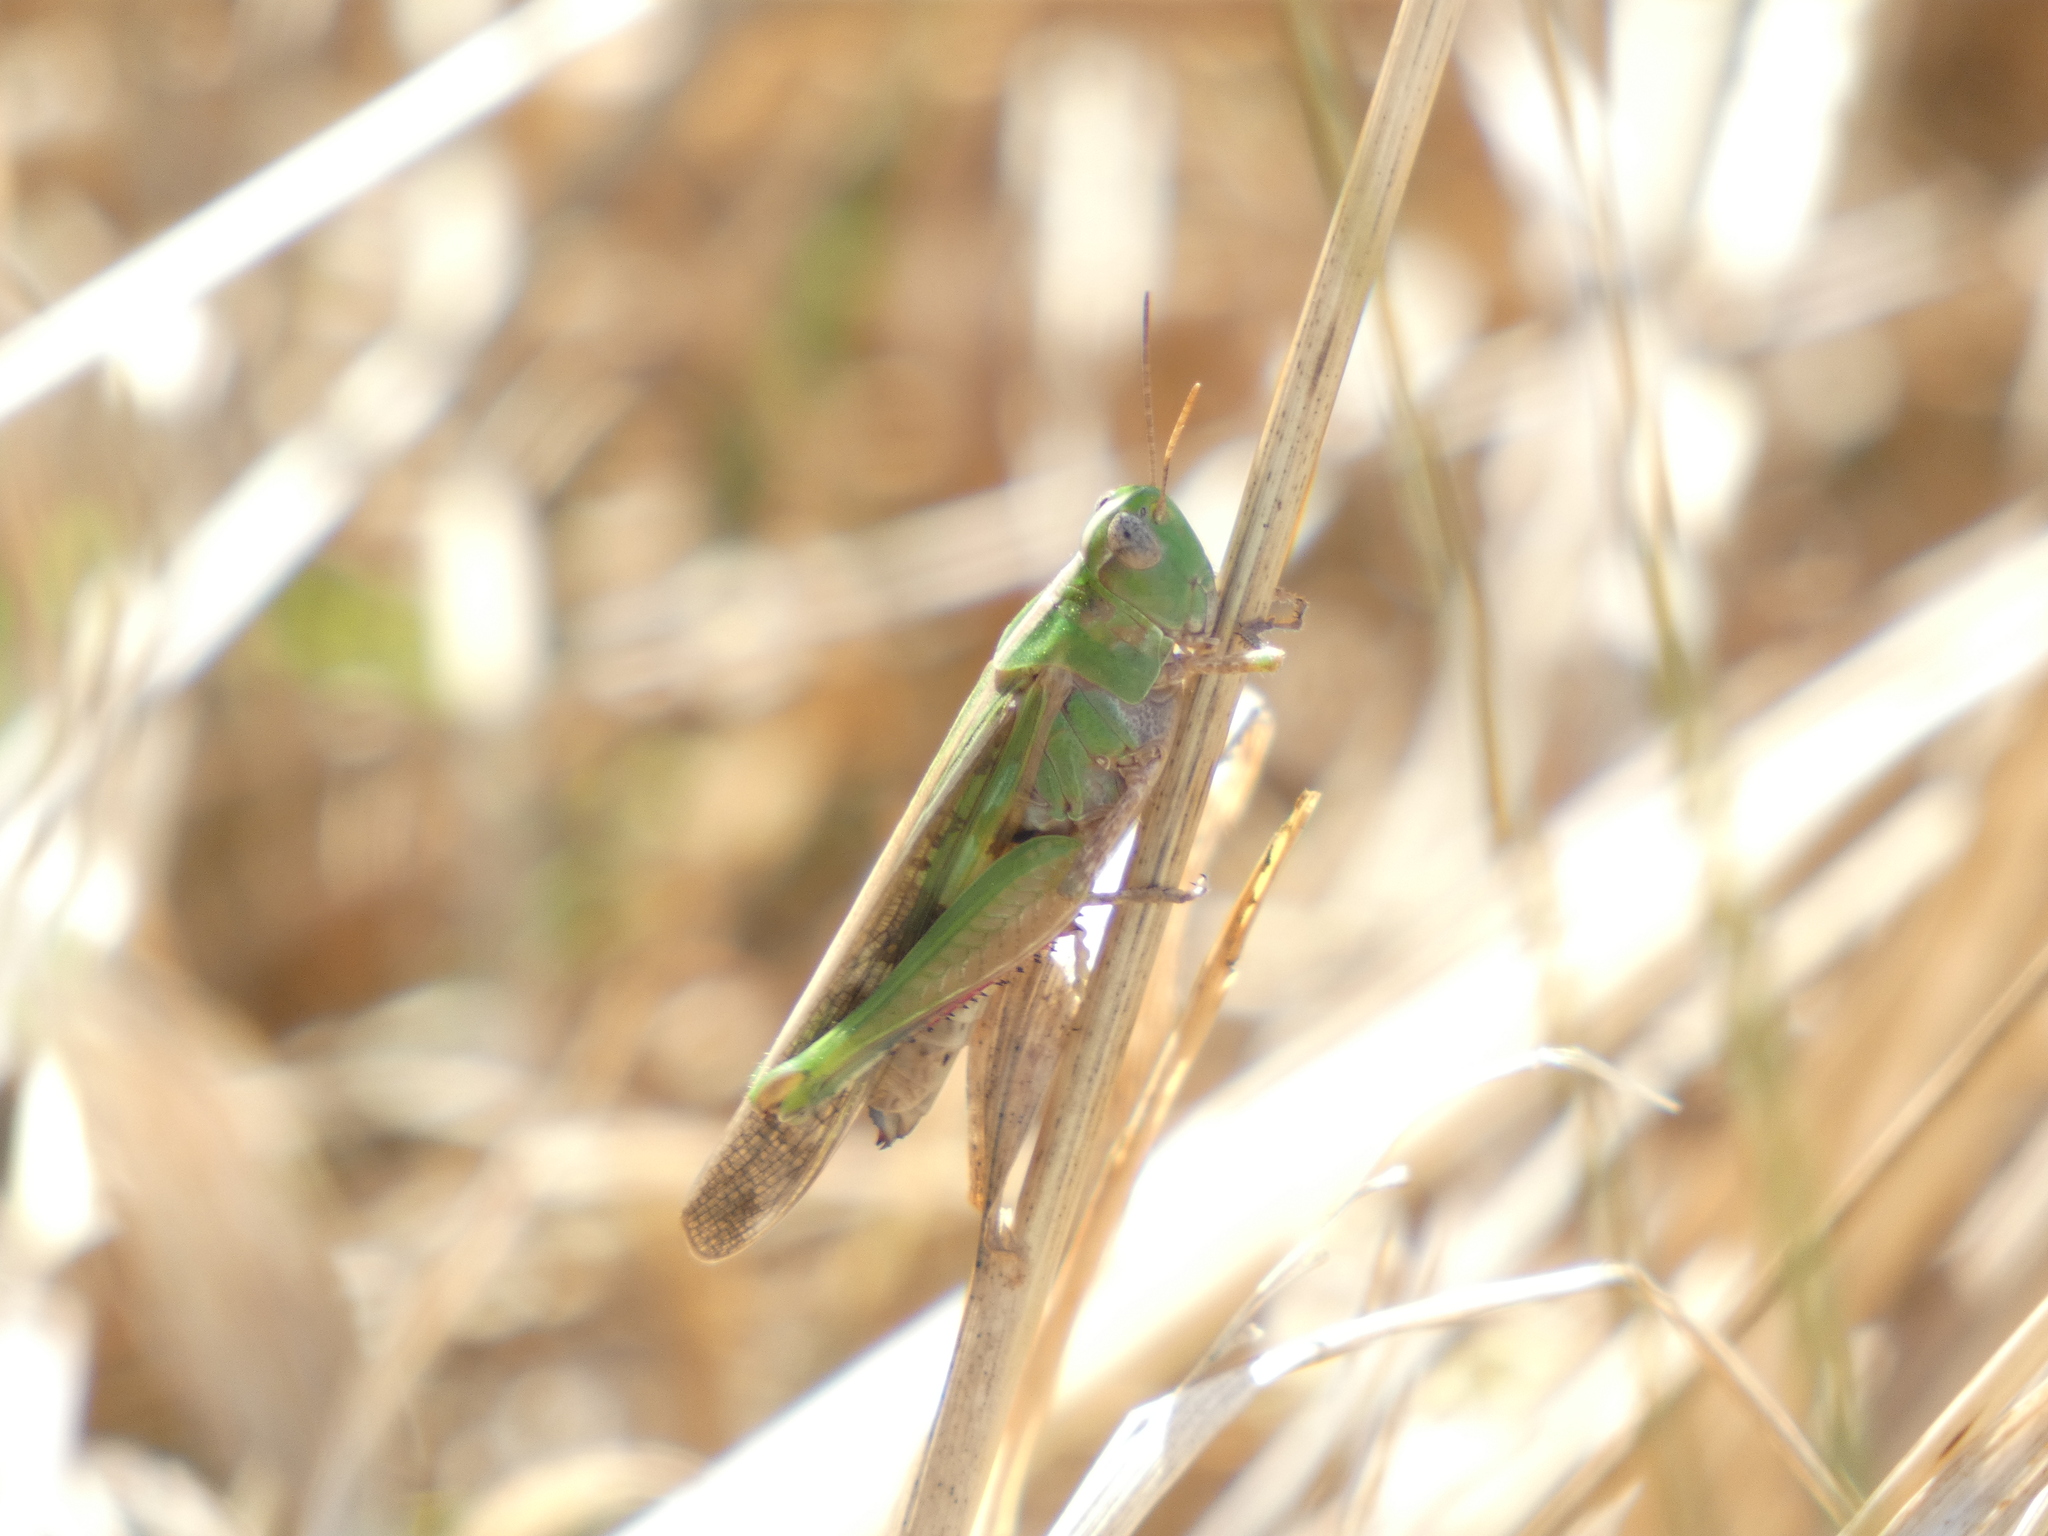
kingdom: Animalia
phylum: Arthropoda
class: Insecta
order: Orthoptera
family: Acrididae
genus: Aiolopus
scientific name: Aiolopus thalassinus
